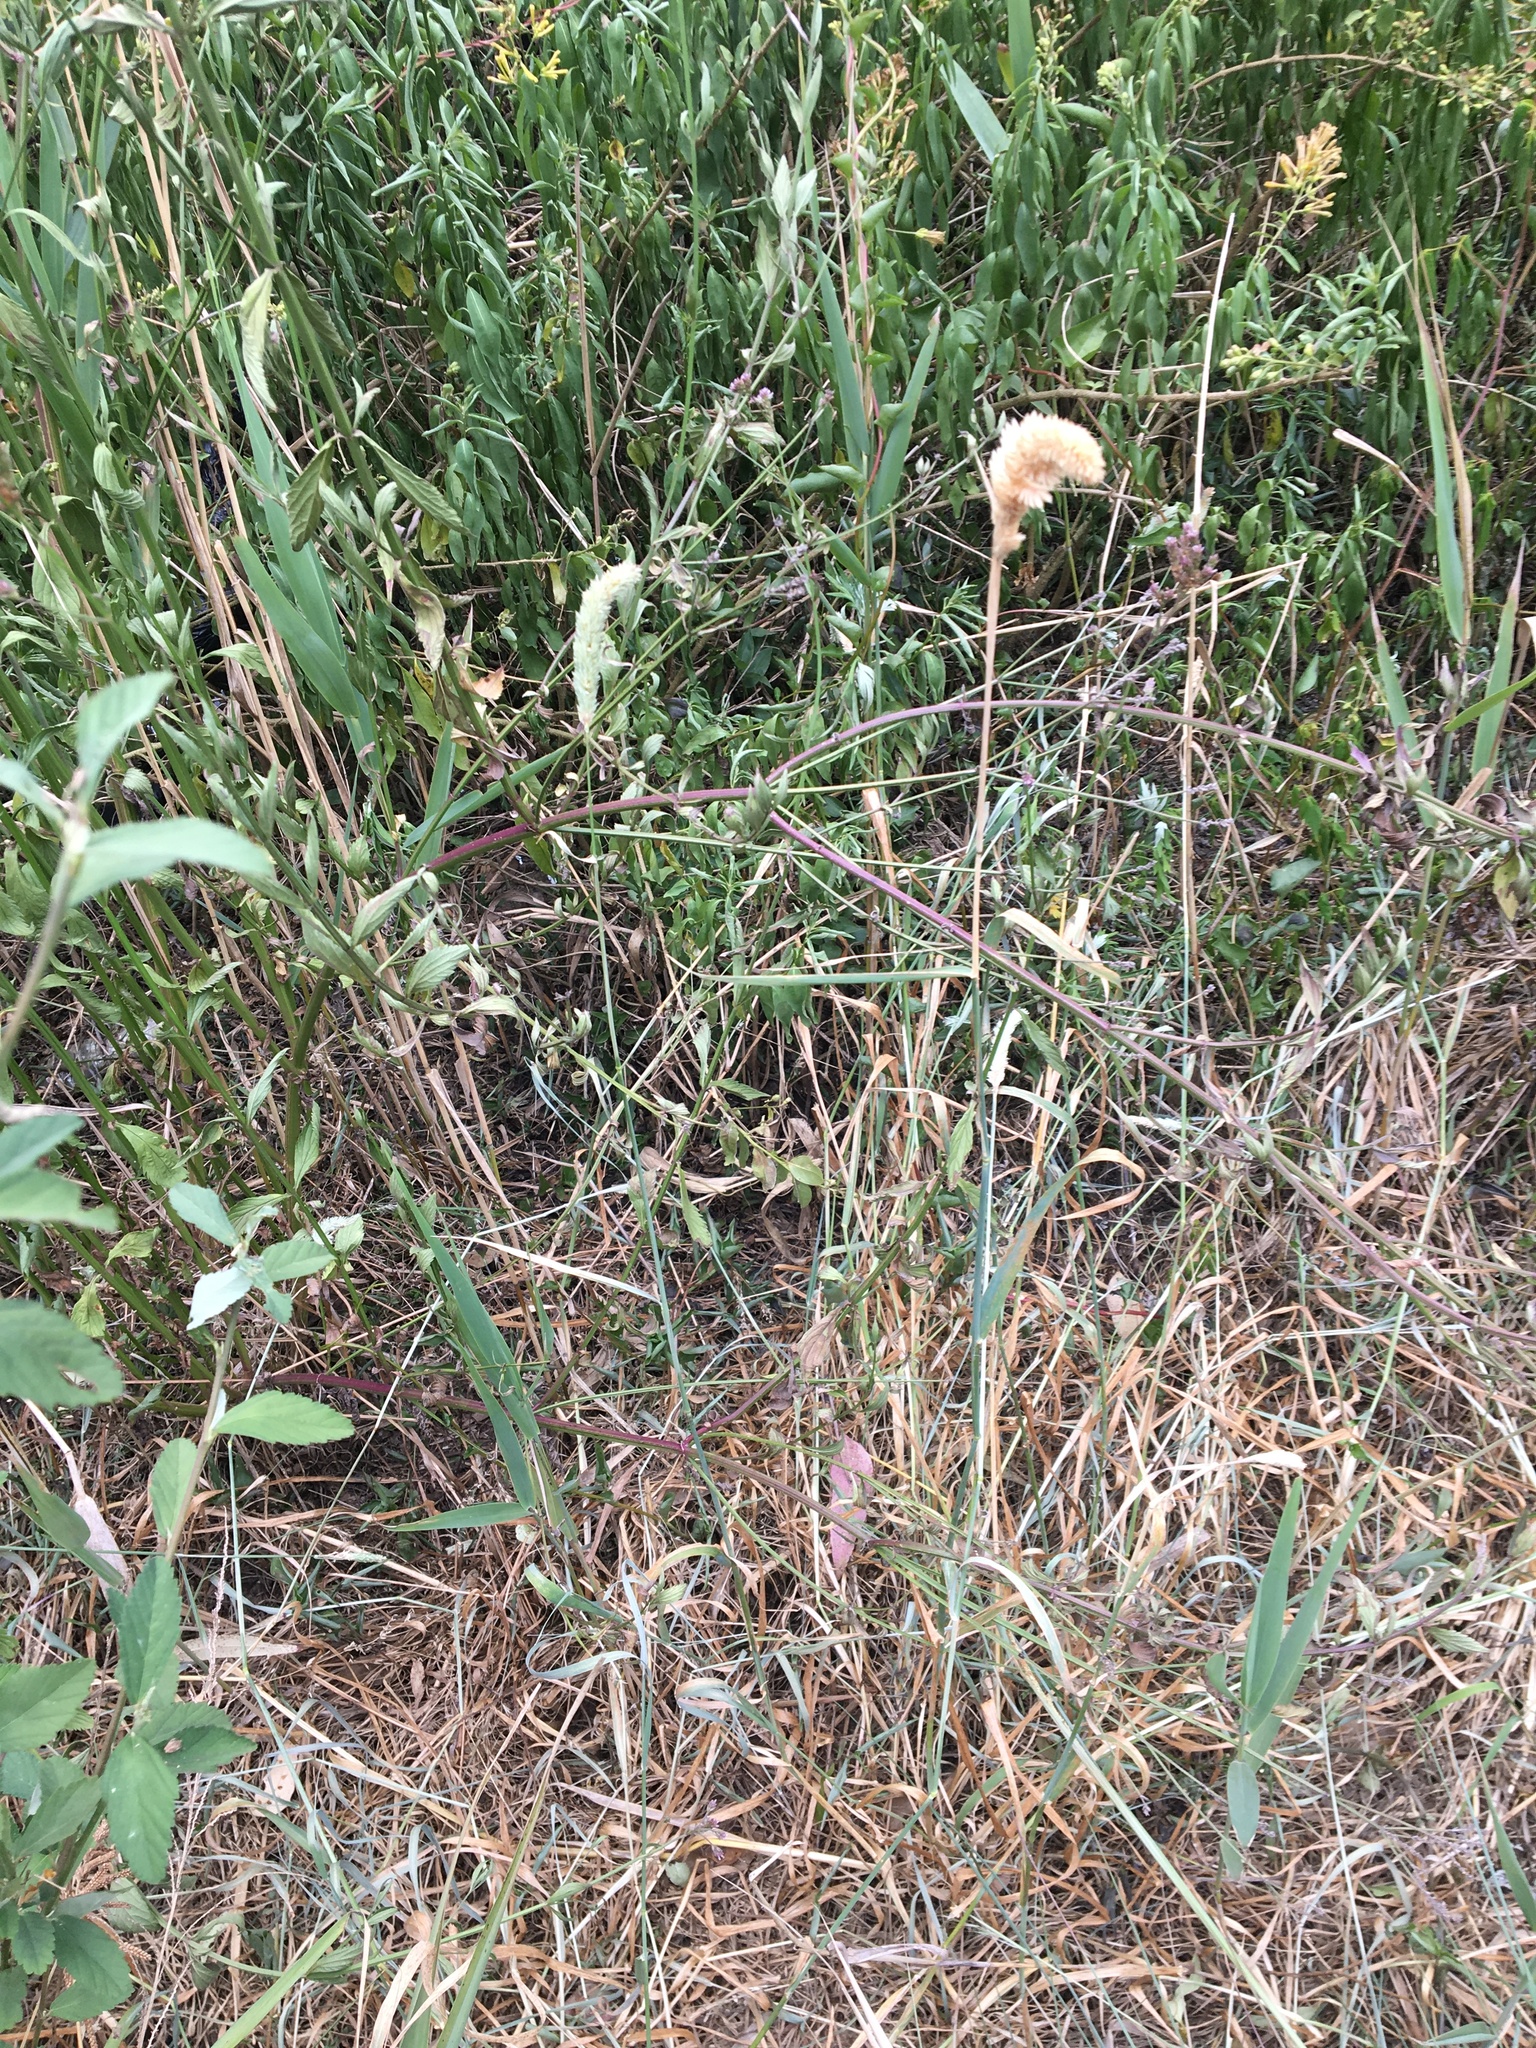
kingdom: Plantae
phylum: Tracheophyta
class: Liliopsida
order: Poales
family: Poaceae
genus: Phalaris
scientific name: Phalaris aquatica
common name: Bulbous canary-grass
